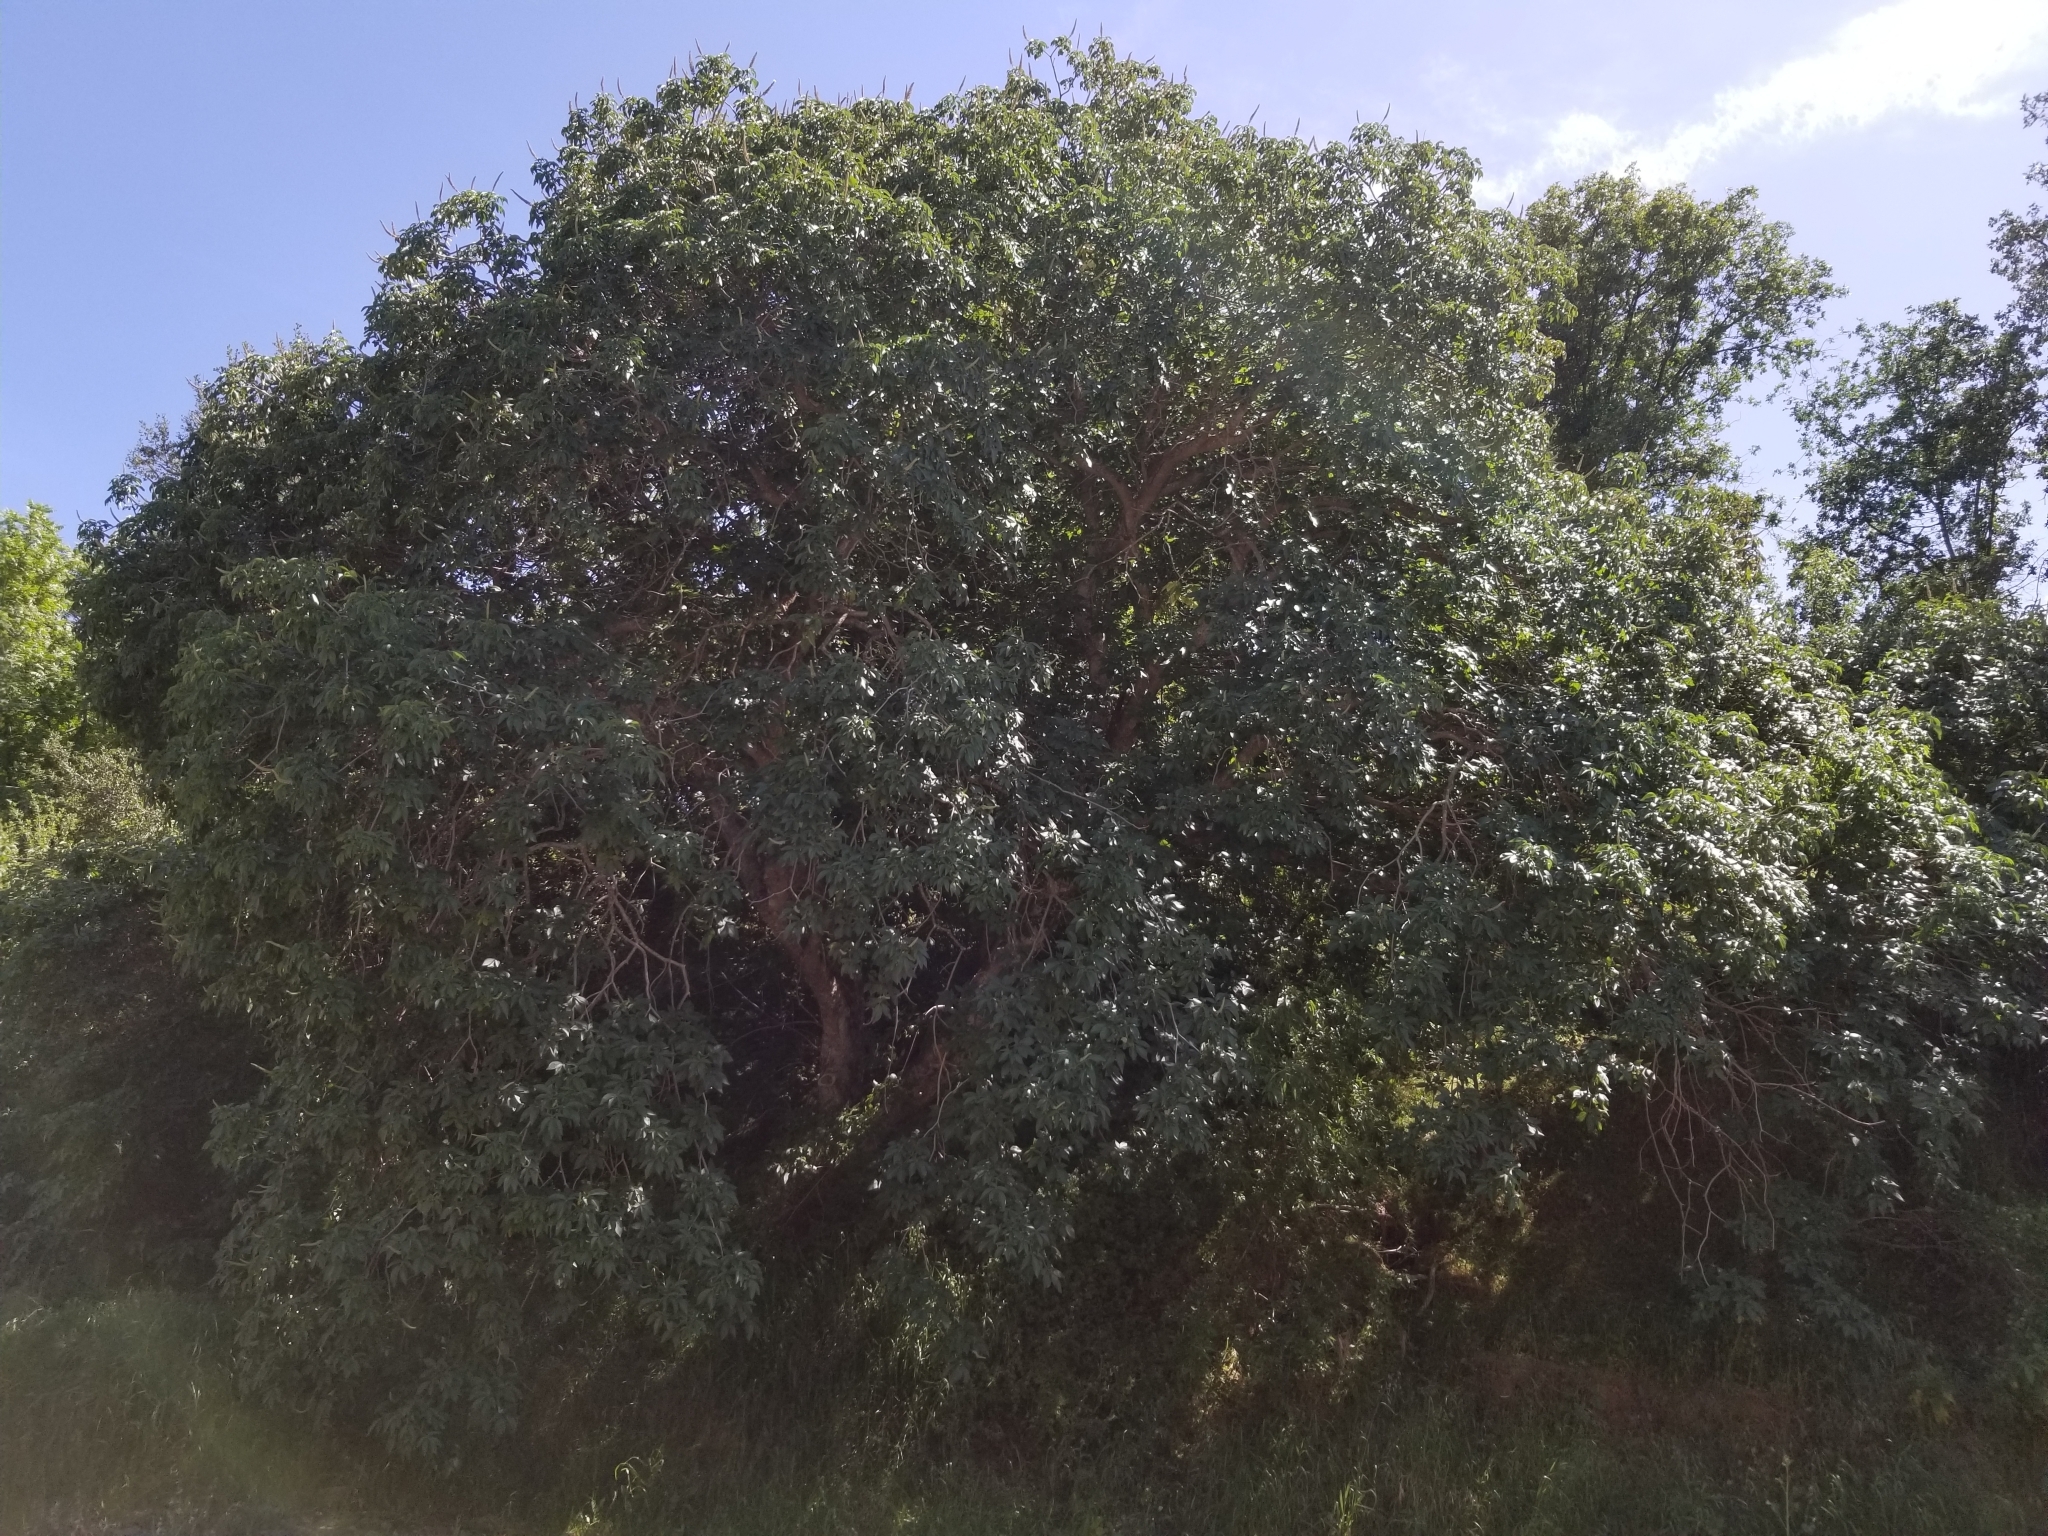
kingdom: Plantae
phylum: Tracheophyta
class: Magnoliopsida
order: Sapindales
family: Sapindaceae
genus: Aesculus
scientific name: Aesculus californica
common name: California buckeye
